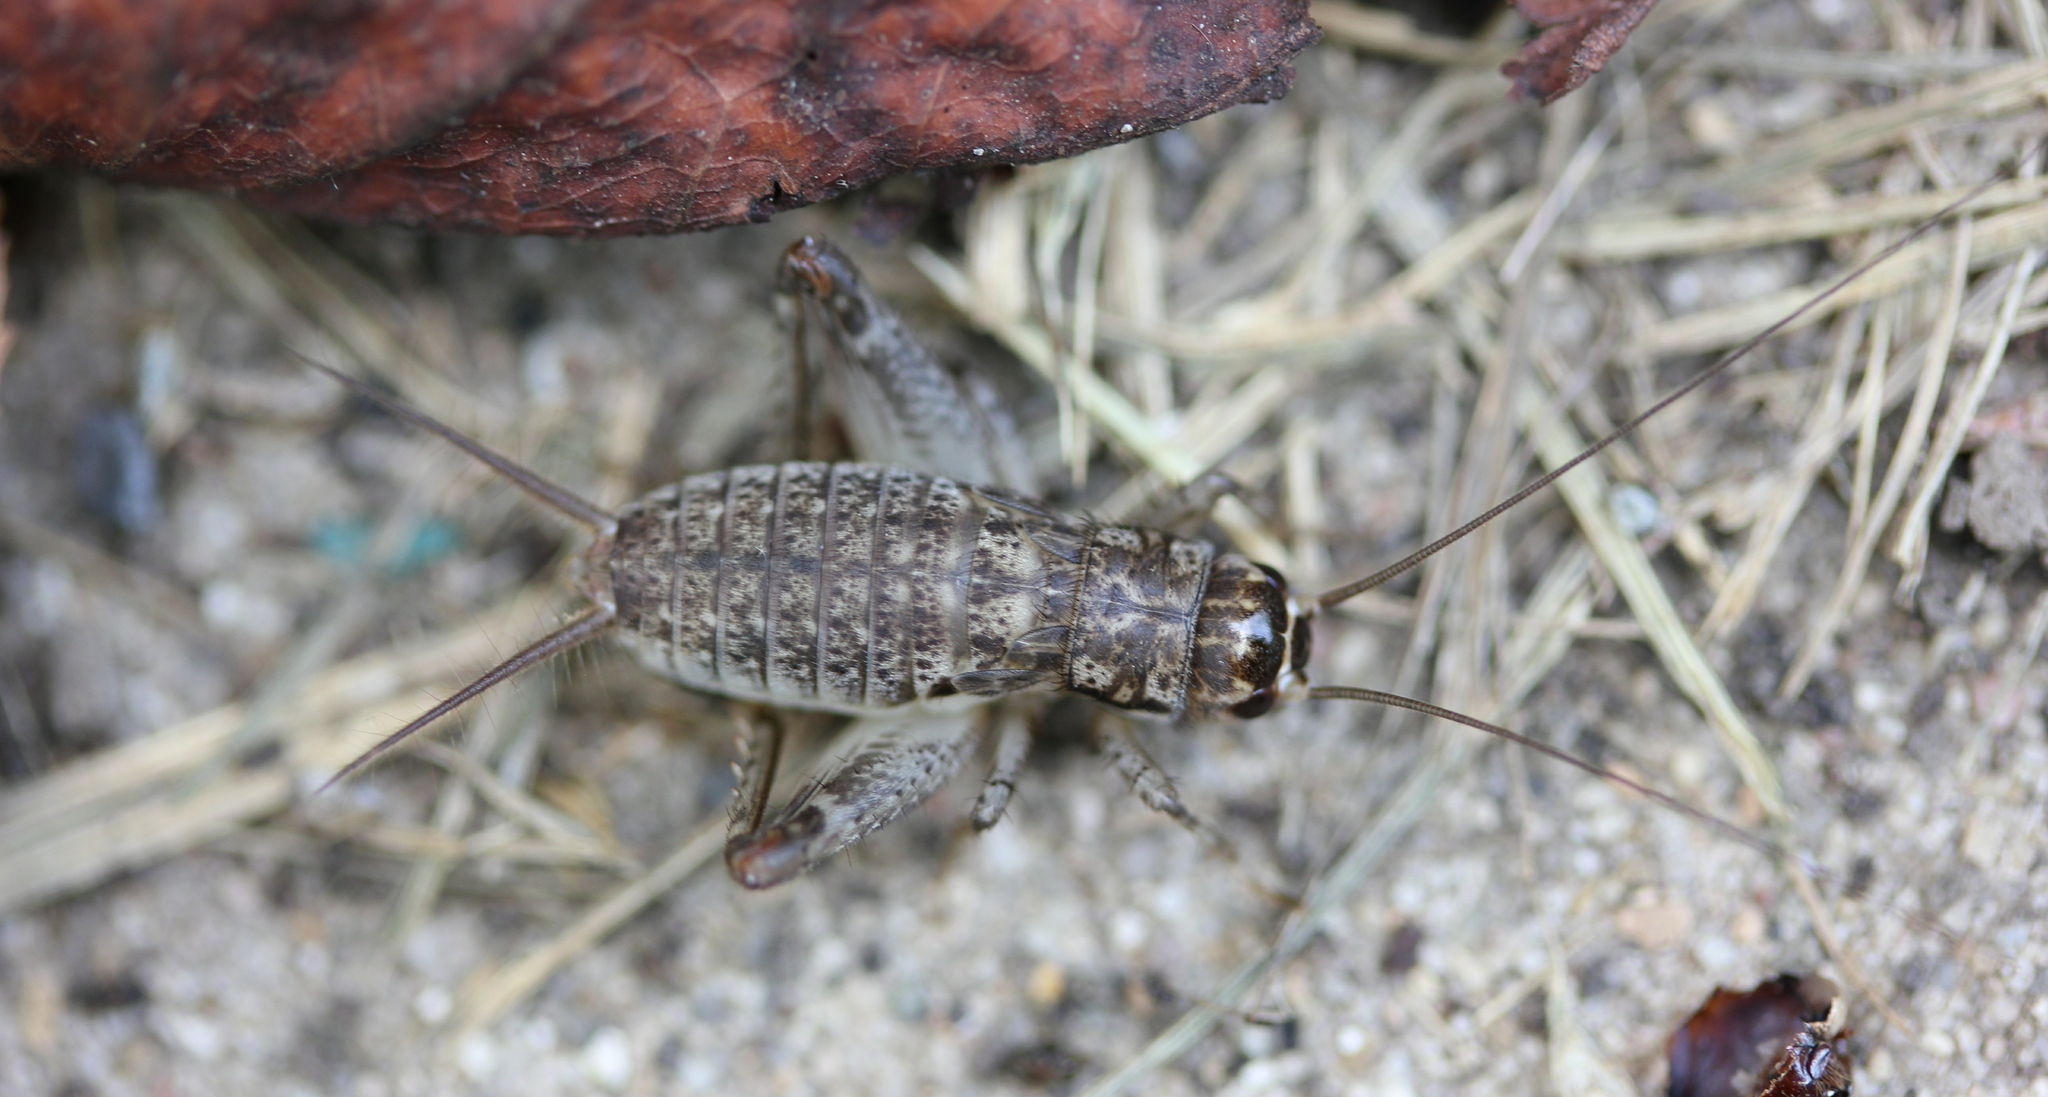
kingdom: Animalia
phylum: Arthropoda
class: Insecta
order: Orthoptera
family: Gryllidae
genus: Velarifictorus
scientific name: Velarifictorus micado
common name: Japanese burrowing cricket
